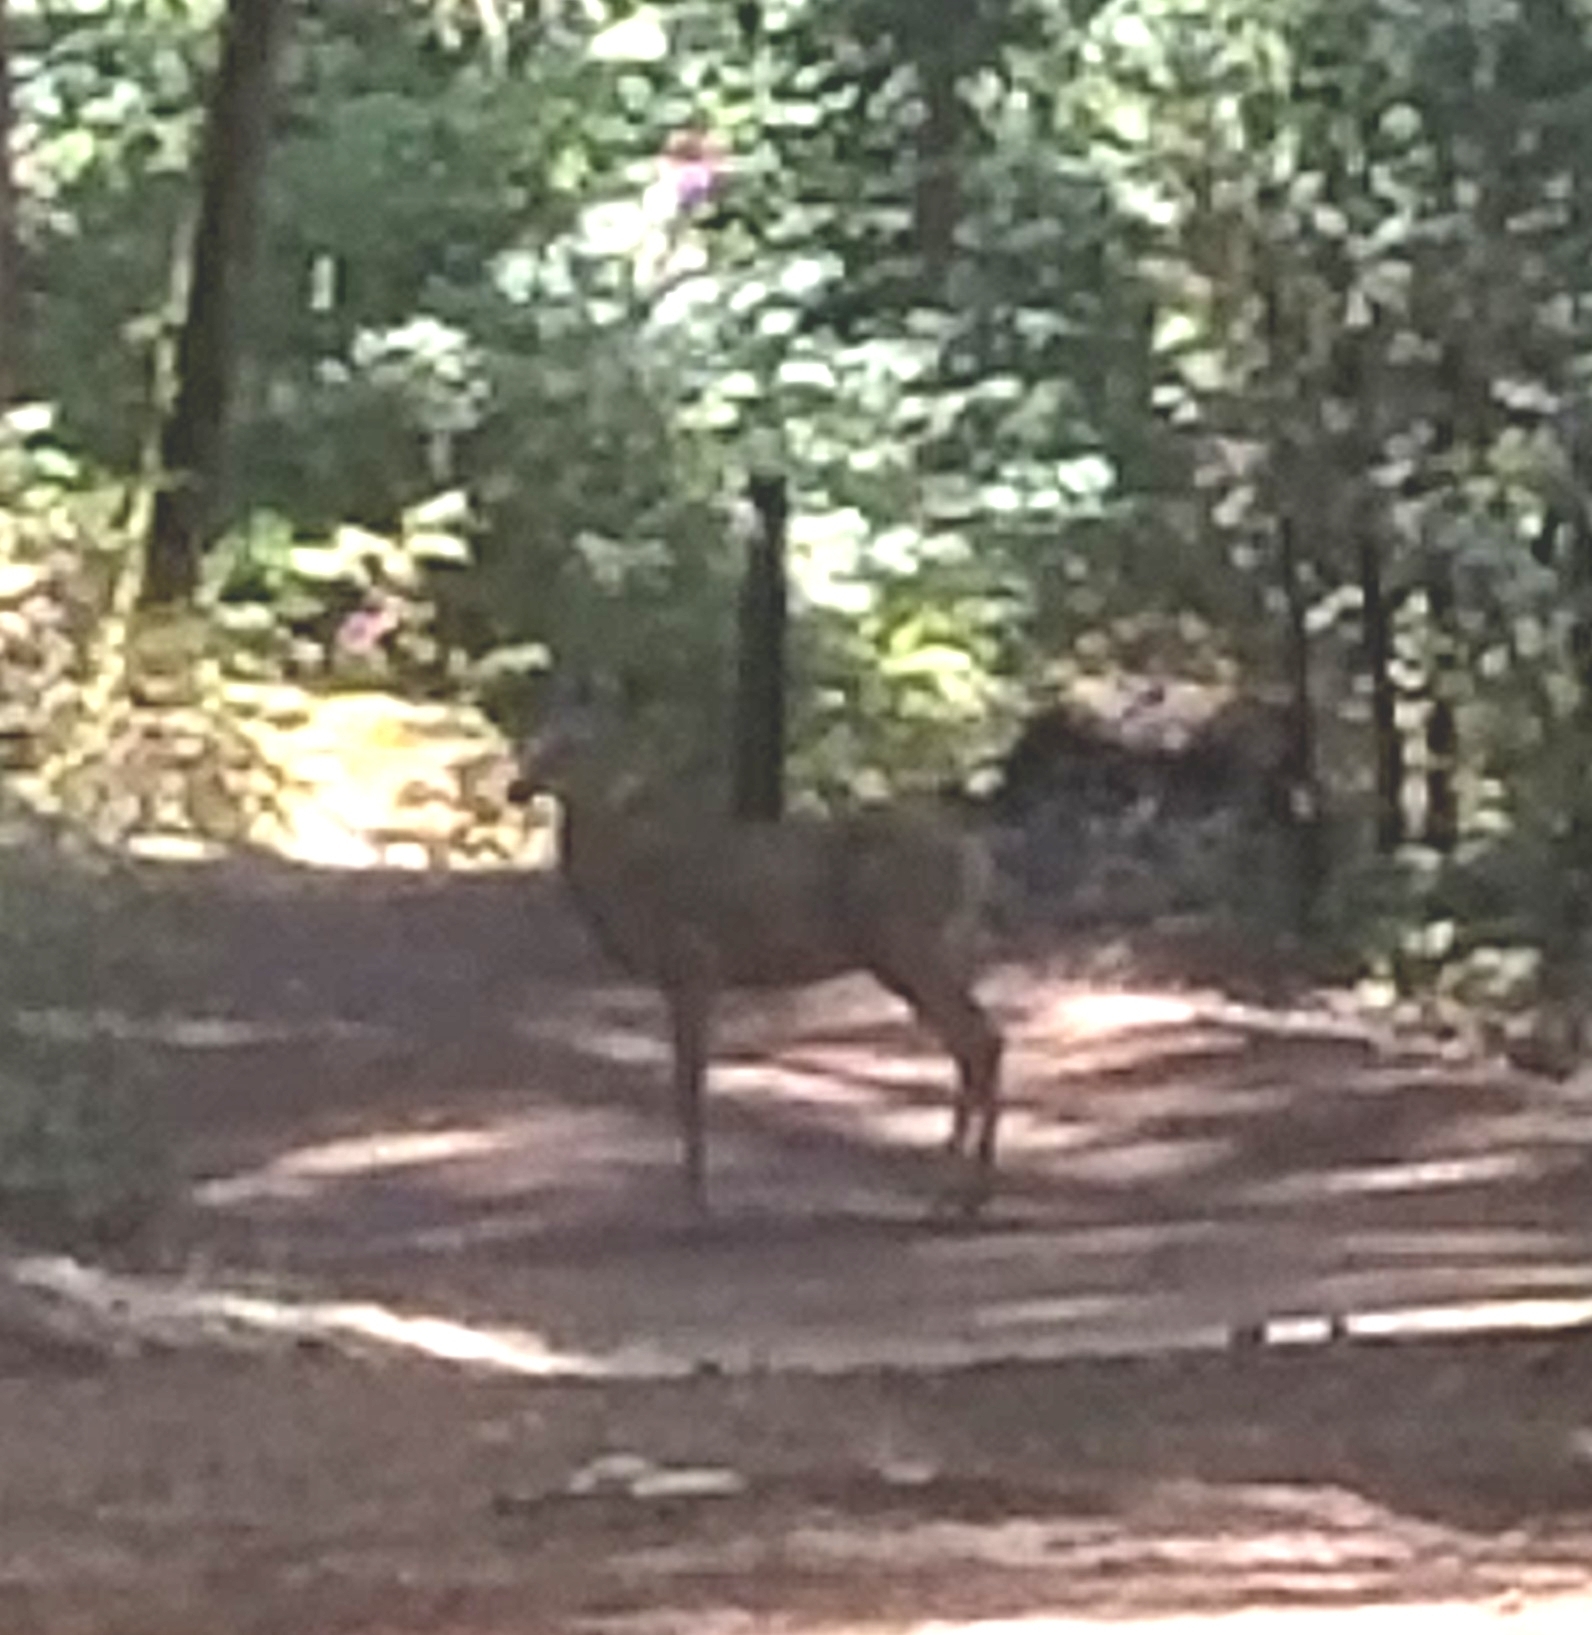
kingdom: Animalia
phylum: Chordata
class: Mammalia
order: Artiodactyla
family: Cervidae
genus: Odocoileus
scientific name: Odocoileus hemionus
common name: Mule deer
